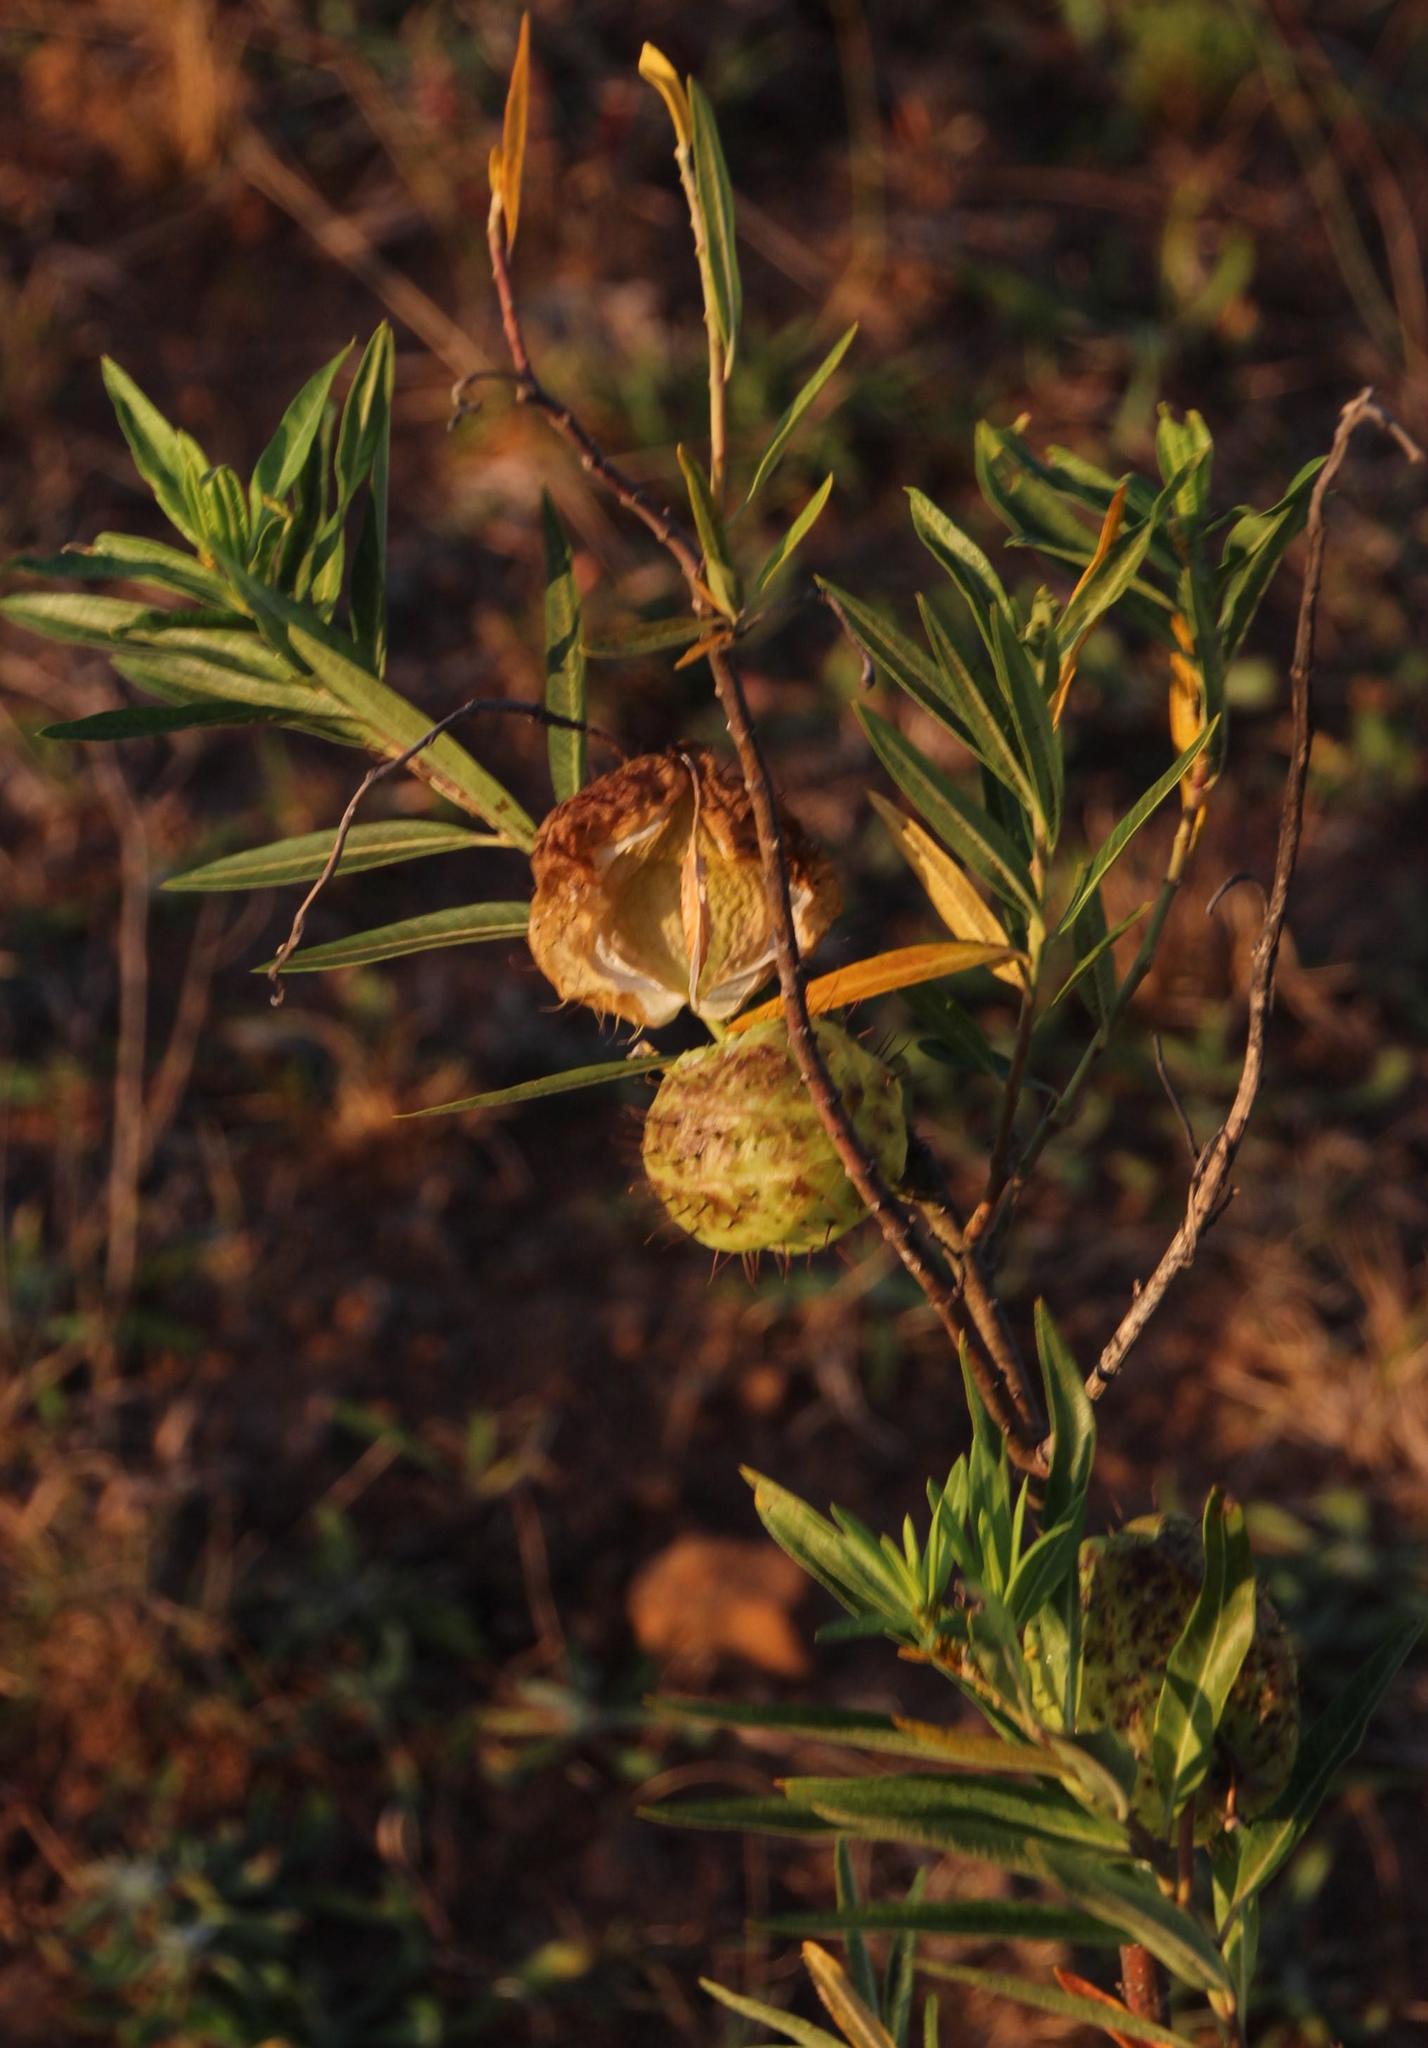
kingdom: Plantae
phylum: Tracheophyta
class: Magnoliopsida
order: Gentianales
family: Apocynaceae
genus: Gomphocarpus
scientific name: Gomphocarpus physocarpus
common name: Balloon cotton bush
